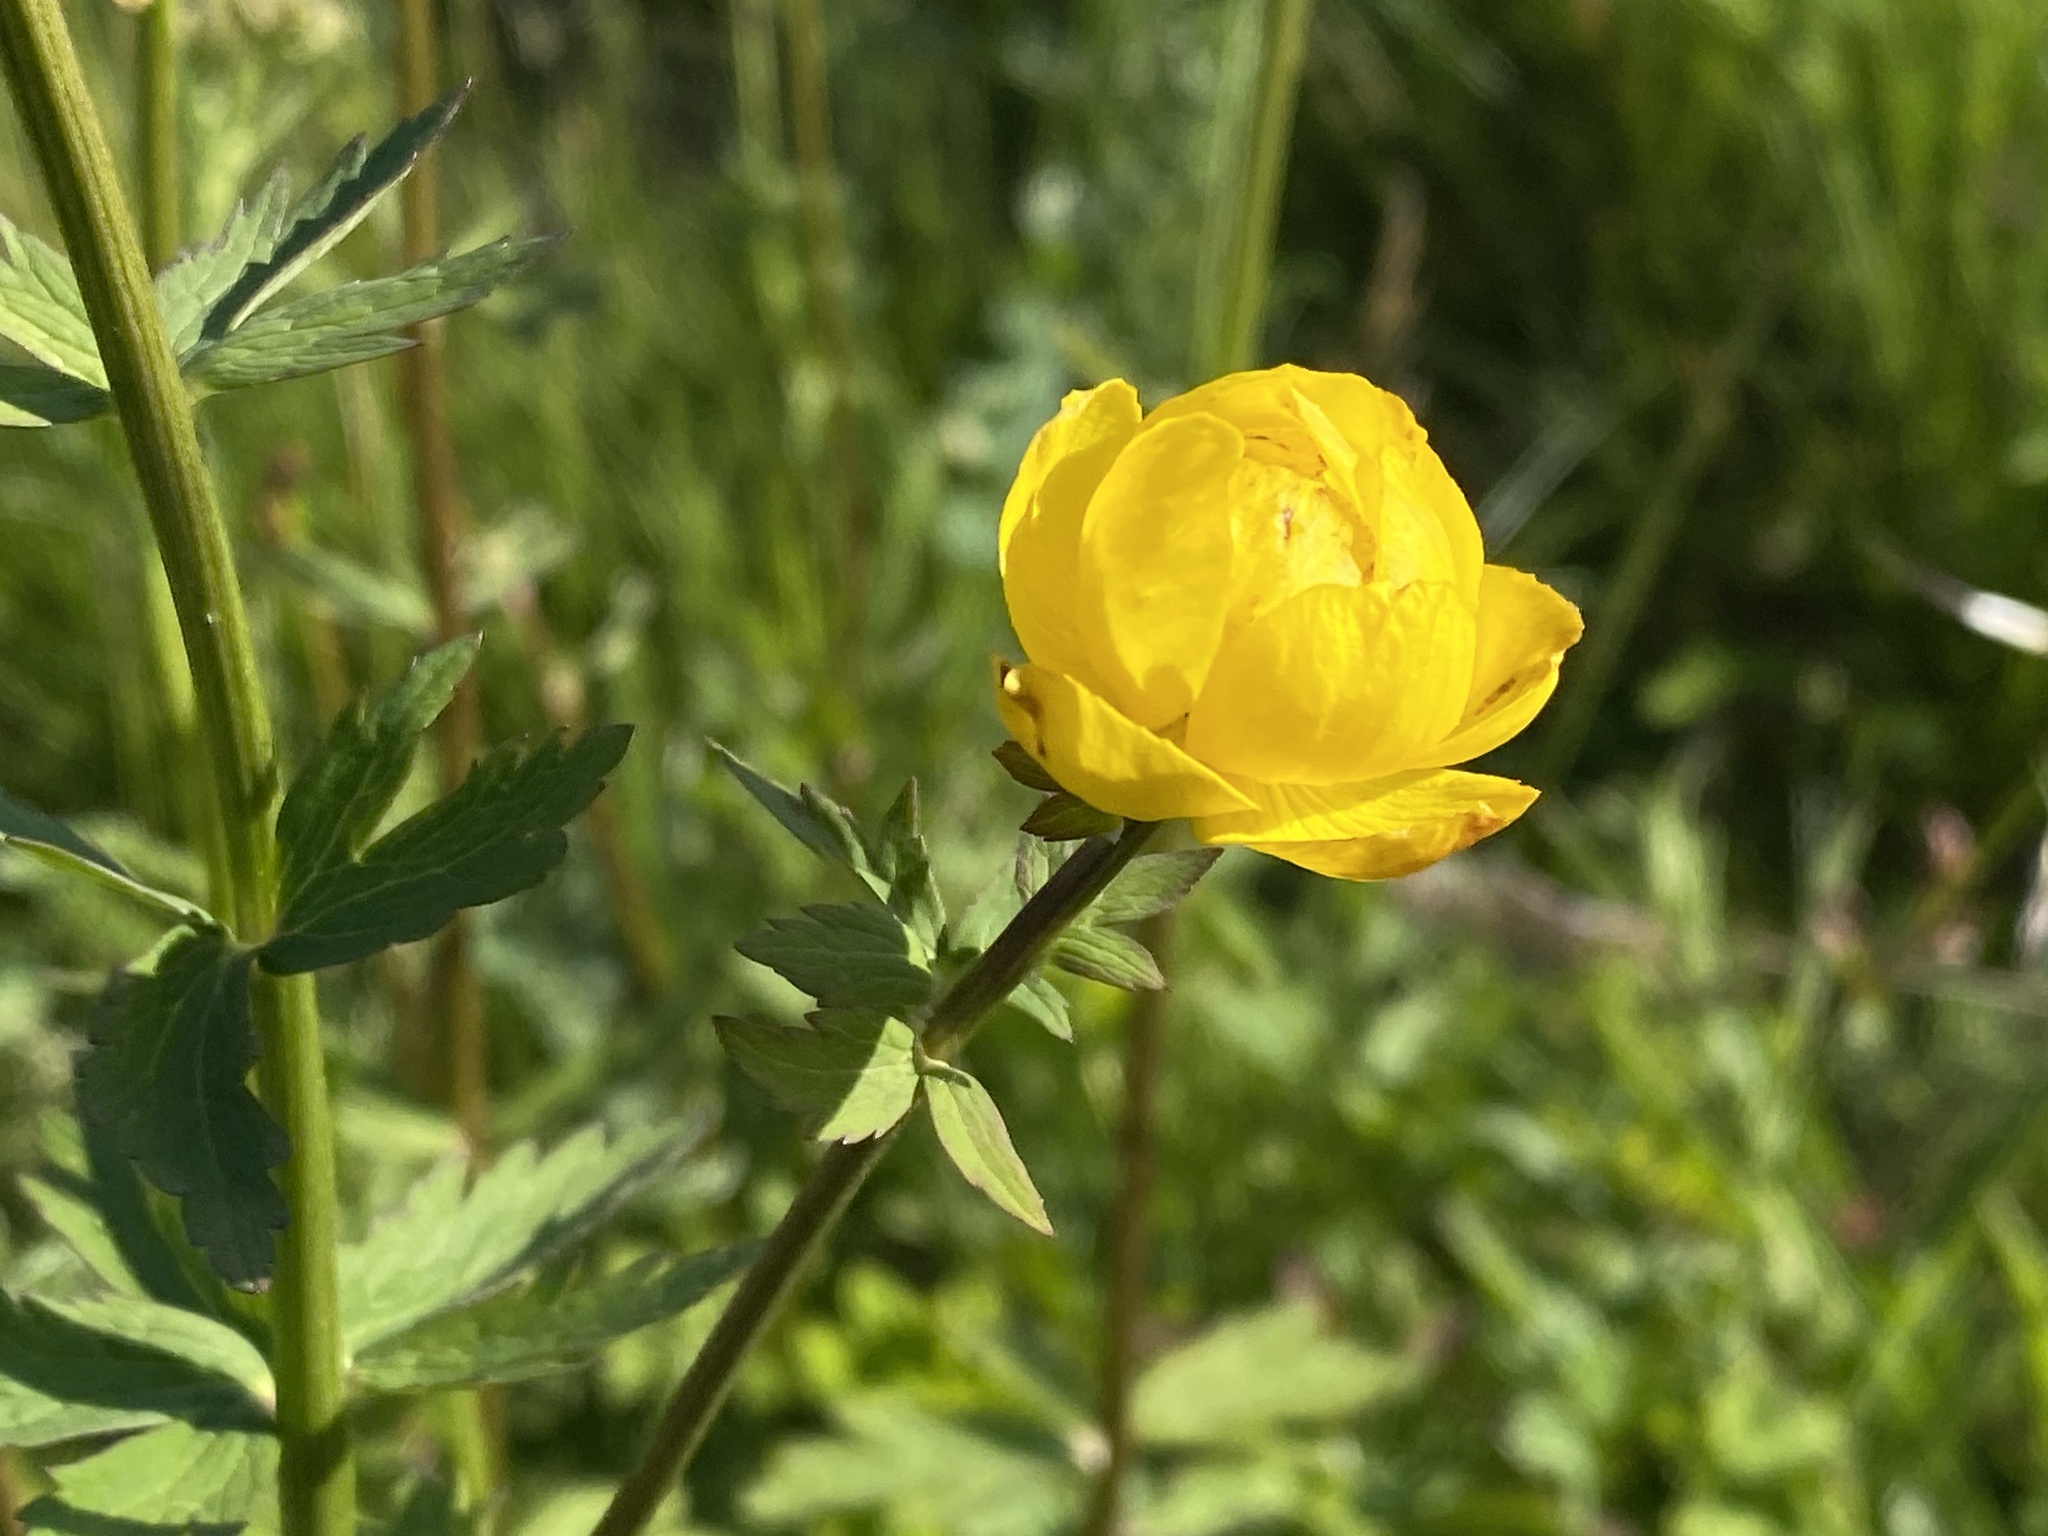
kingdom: Plantae
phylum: Tracheophyta
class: Magnoliopsida
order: Ranunculales
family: Ranunculaceae
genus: Trollius
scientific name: Trollius europaeus
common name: European globeflower
